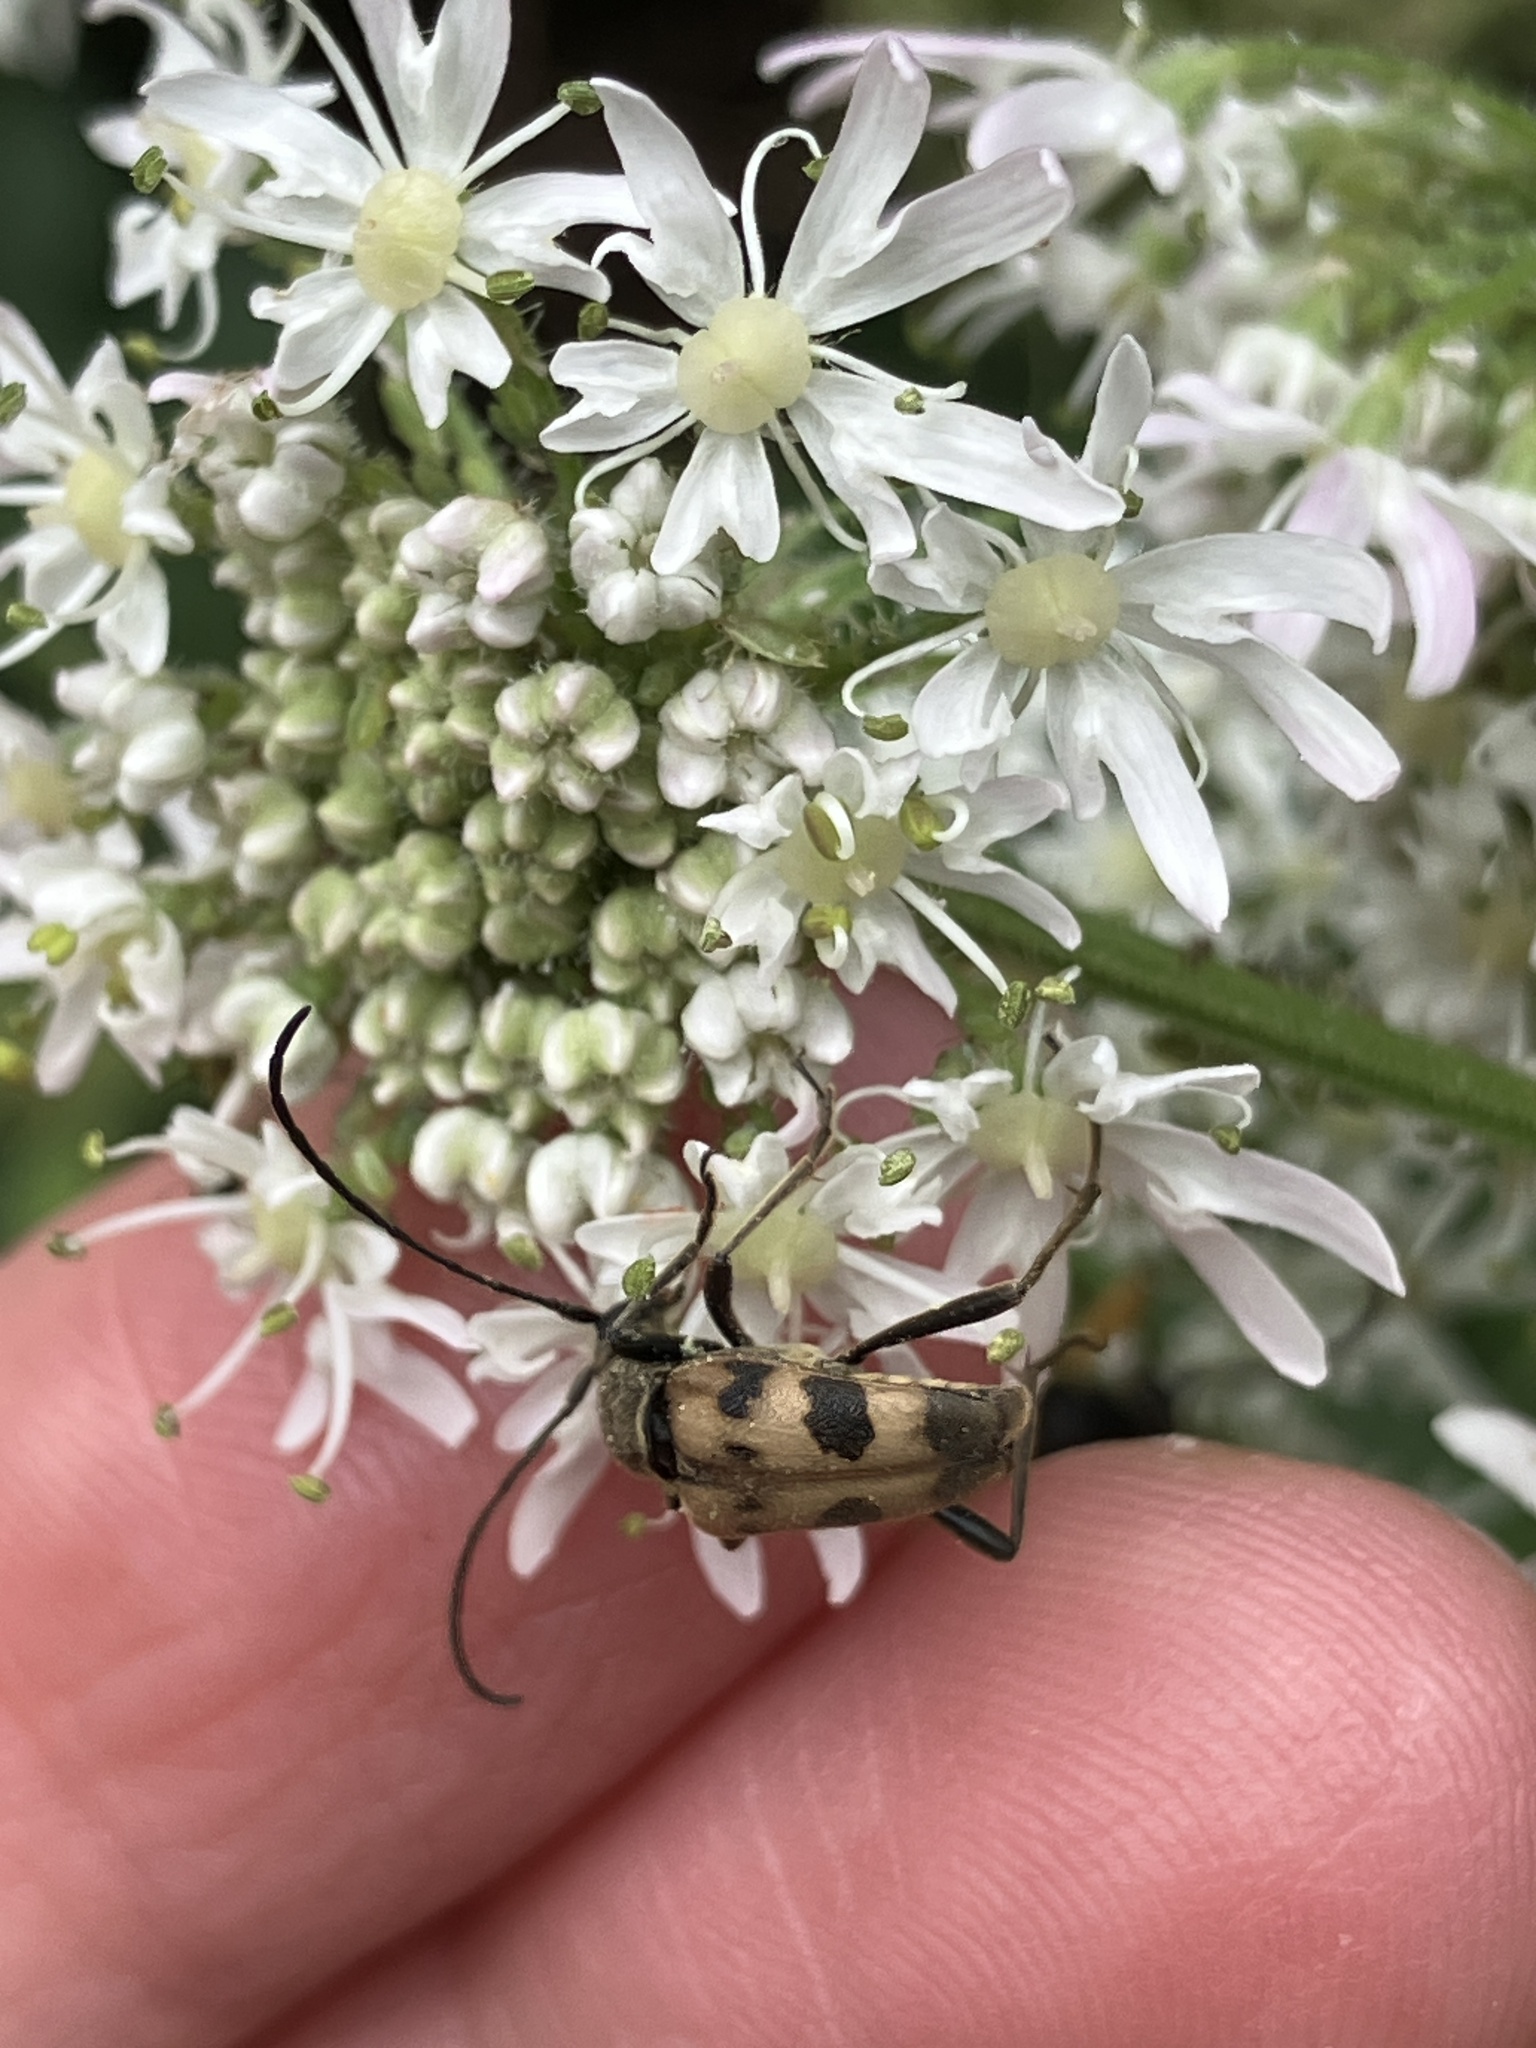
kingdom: Animalia
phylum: Arthropoda
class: Insecta
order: Coleoptera
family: Cerambycidae
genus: Pachytodes
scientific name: Pachytodes cerambyciformis
